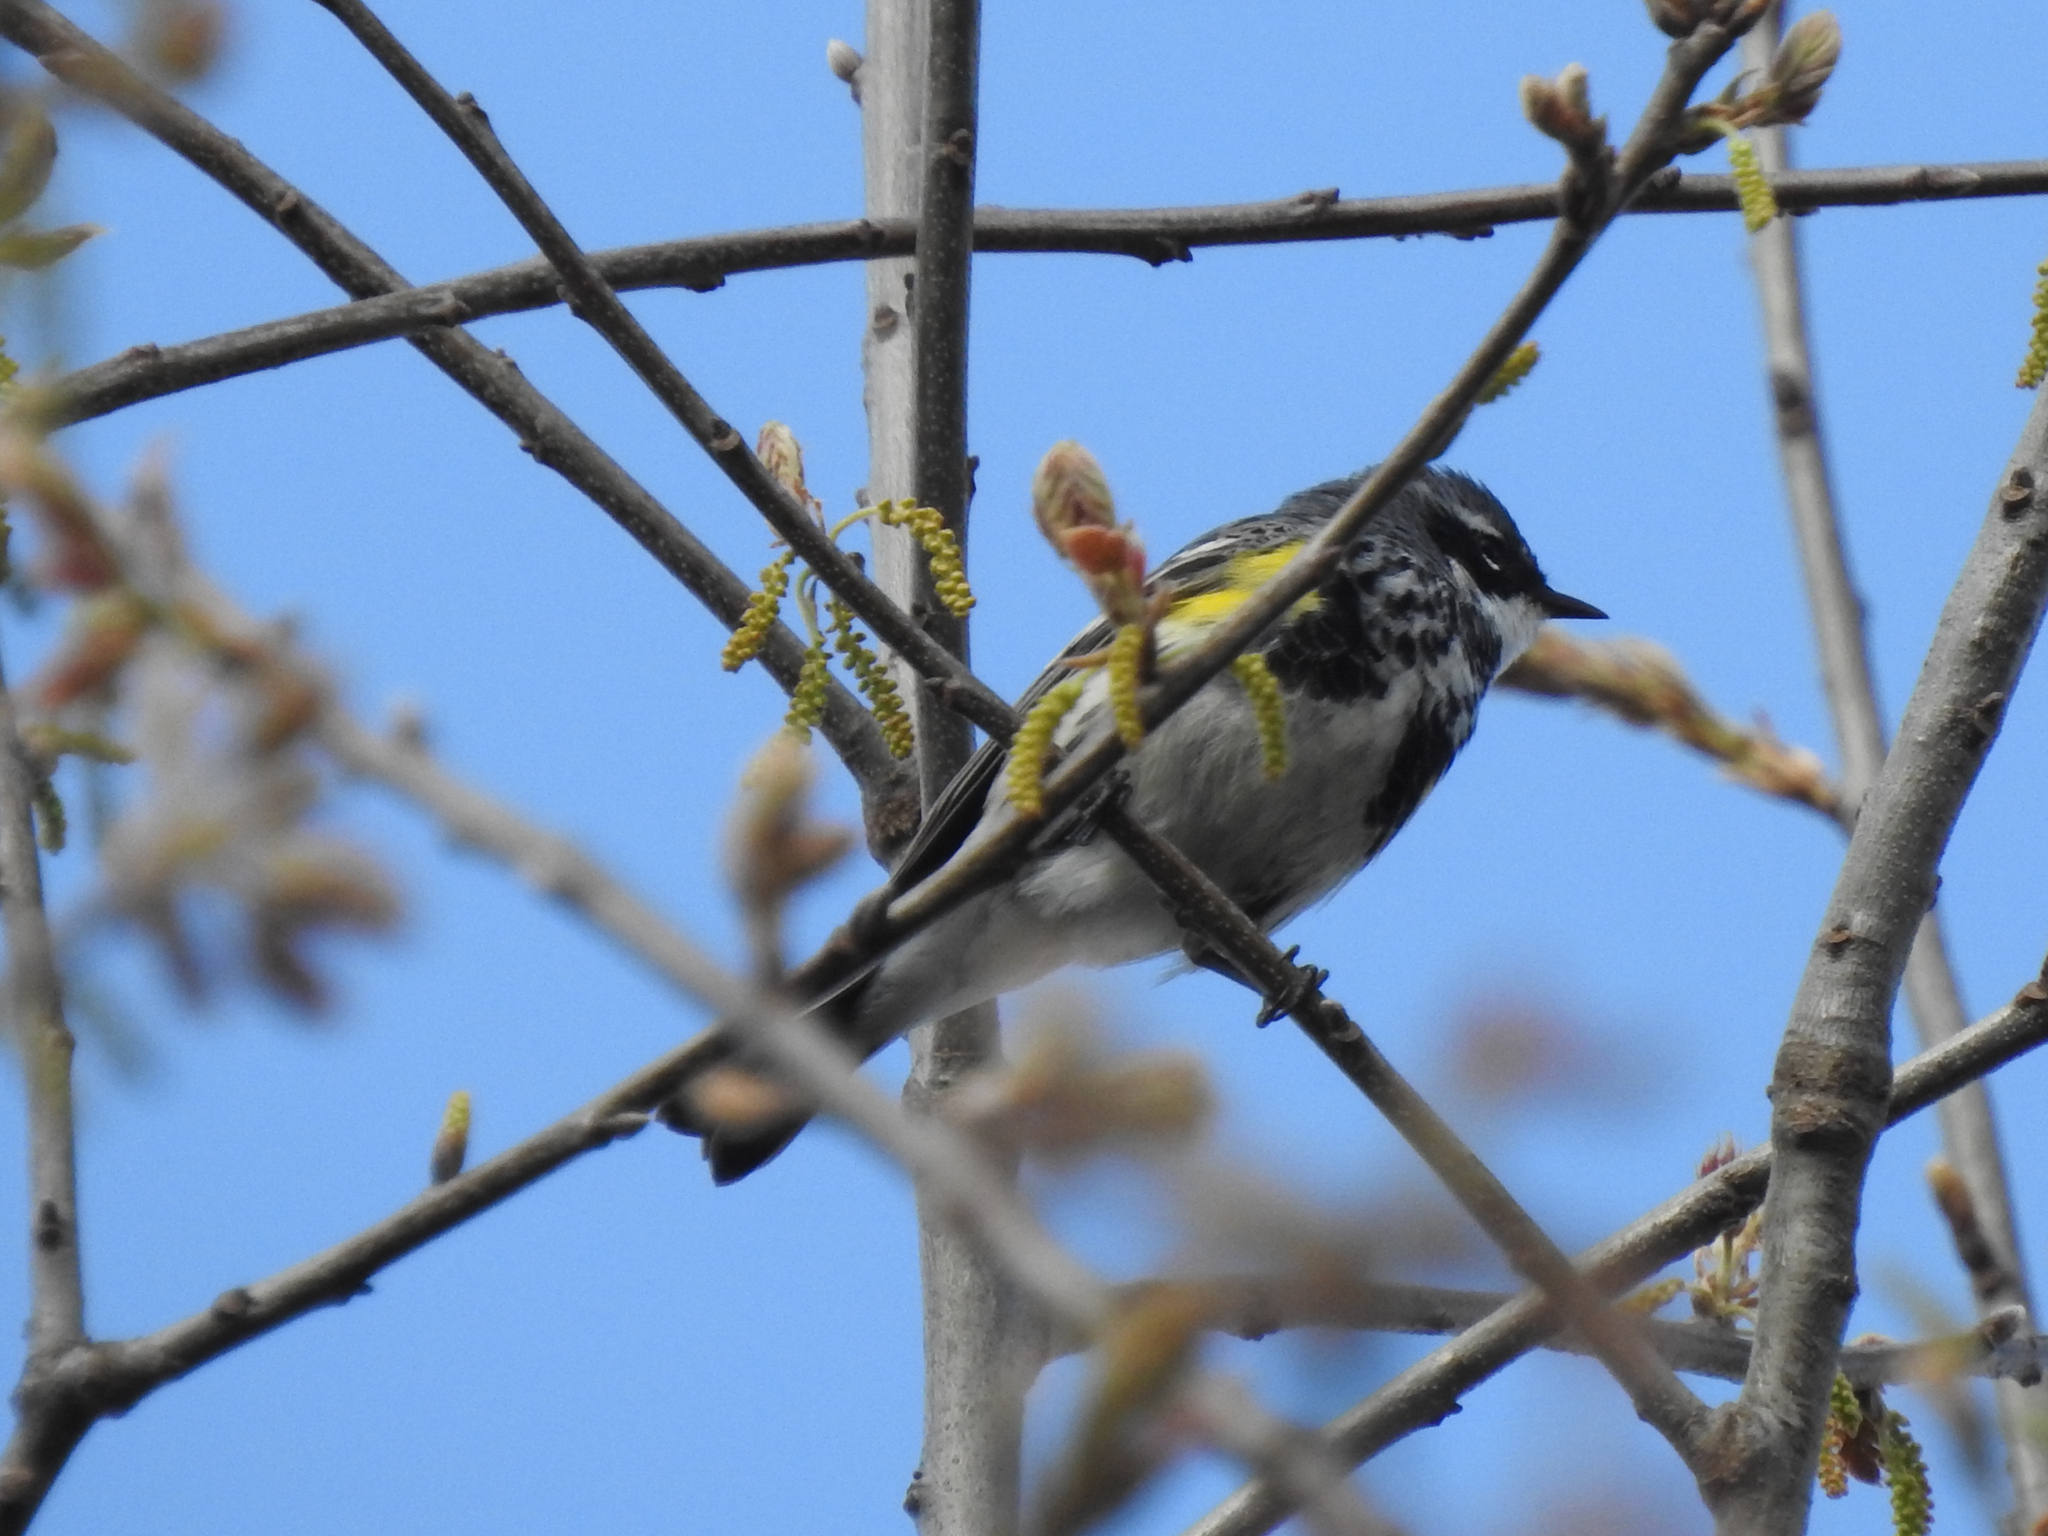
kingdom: Animalia
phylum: Chordata
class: Aves
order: Passeriformes
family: Parulidae
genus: Setophaga
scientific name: Setophaga coronata
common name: Myrtle warbler
